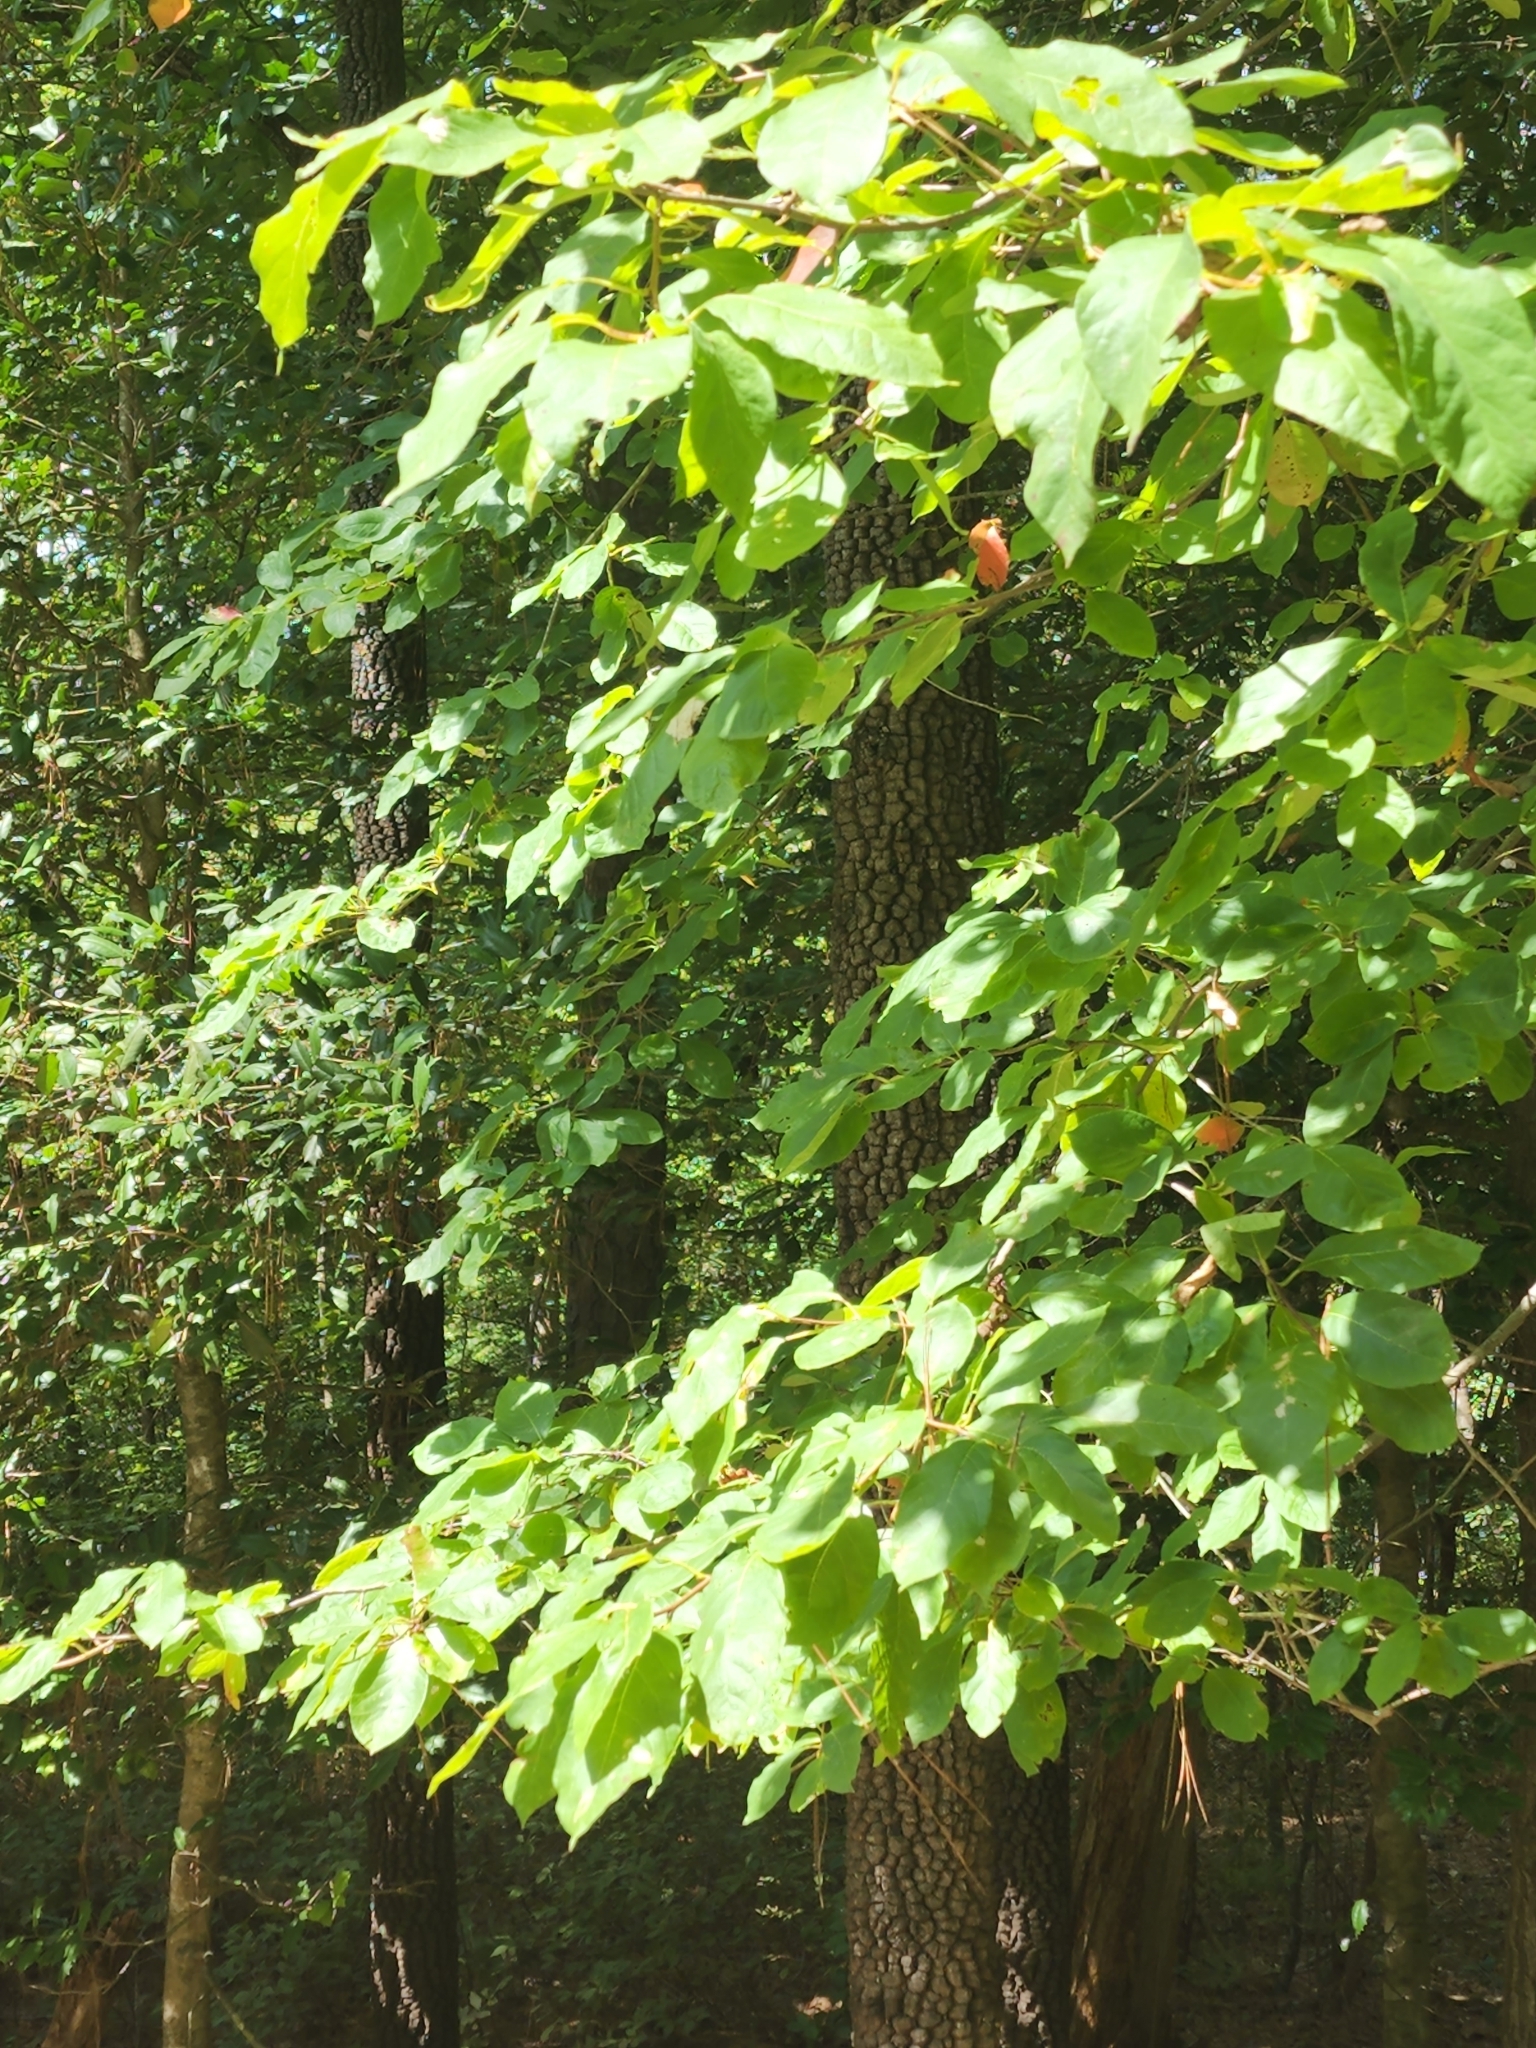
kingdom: Plantae
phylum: Tracheophyta
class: Magnoliopsida
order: Cornales
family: Nyssaceae
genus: Nyssa
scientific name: Nyssa sylvatica
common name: Black tupelo
